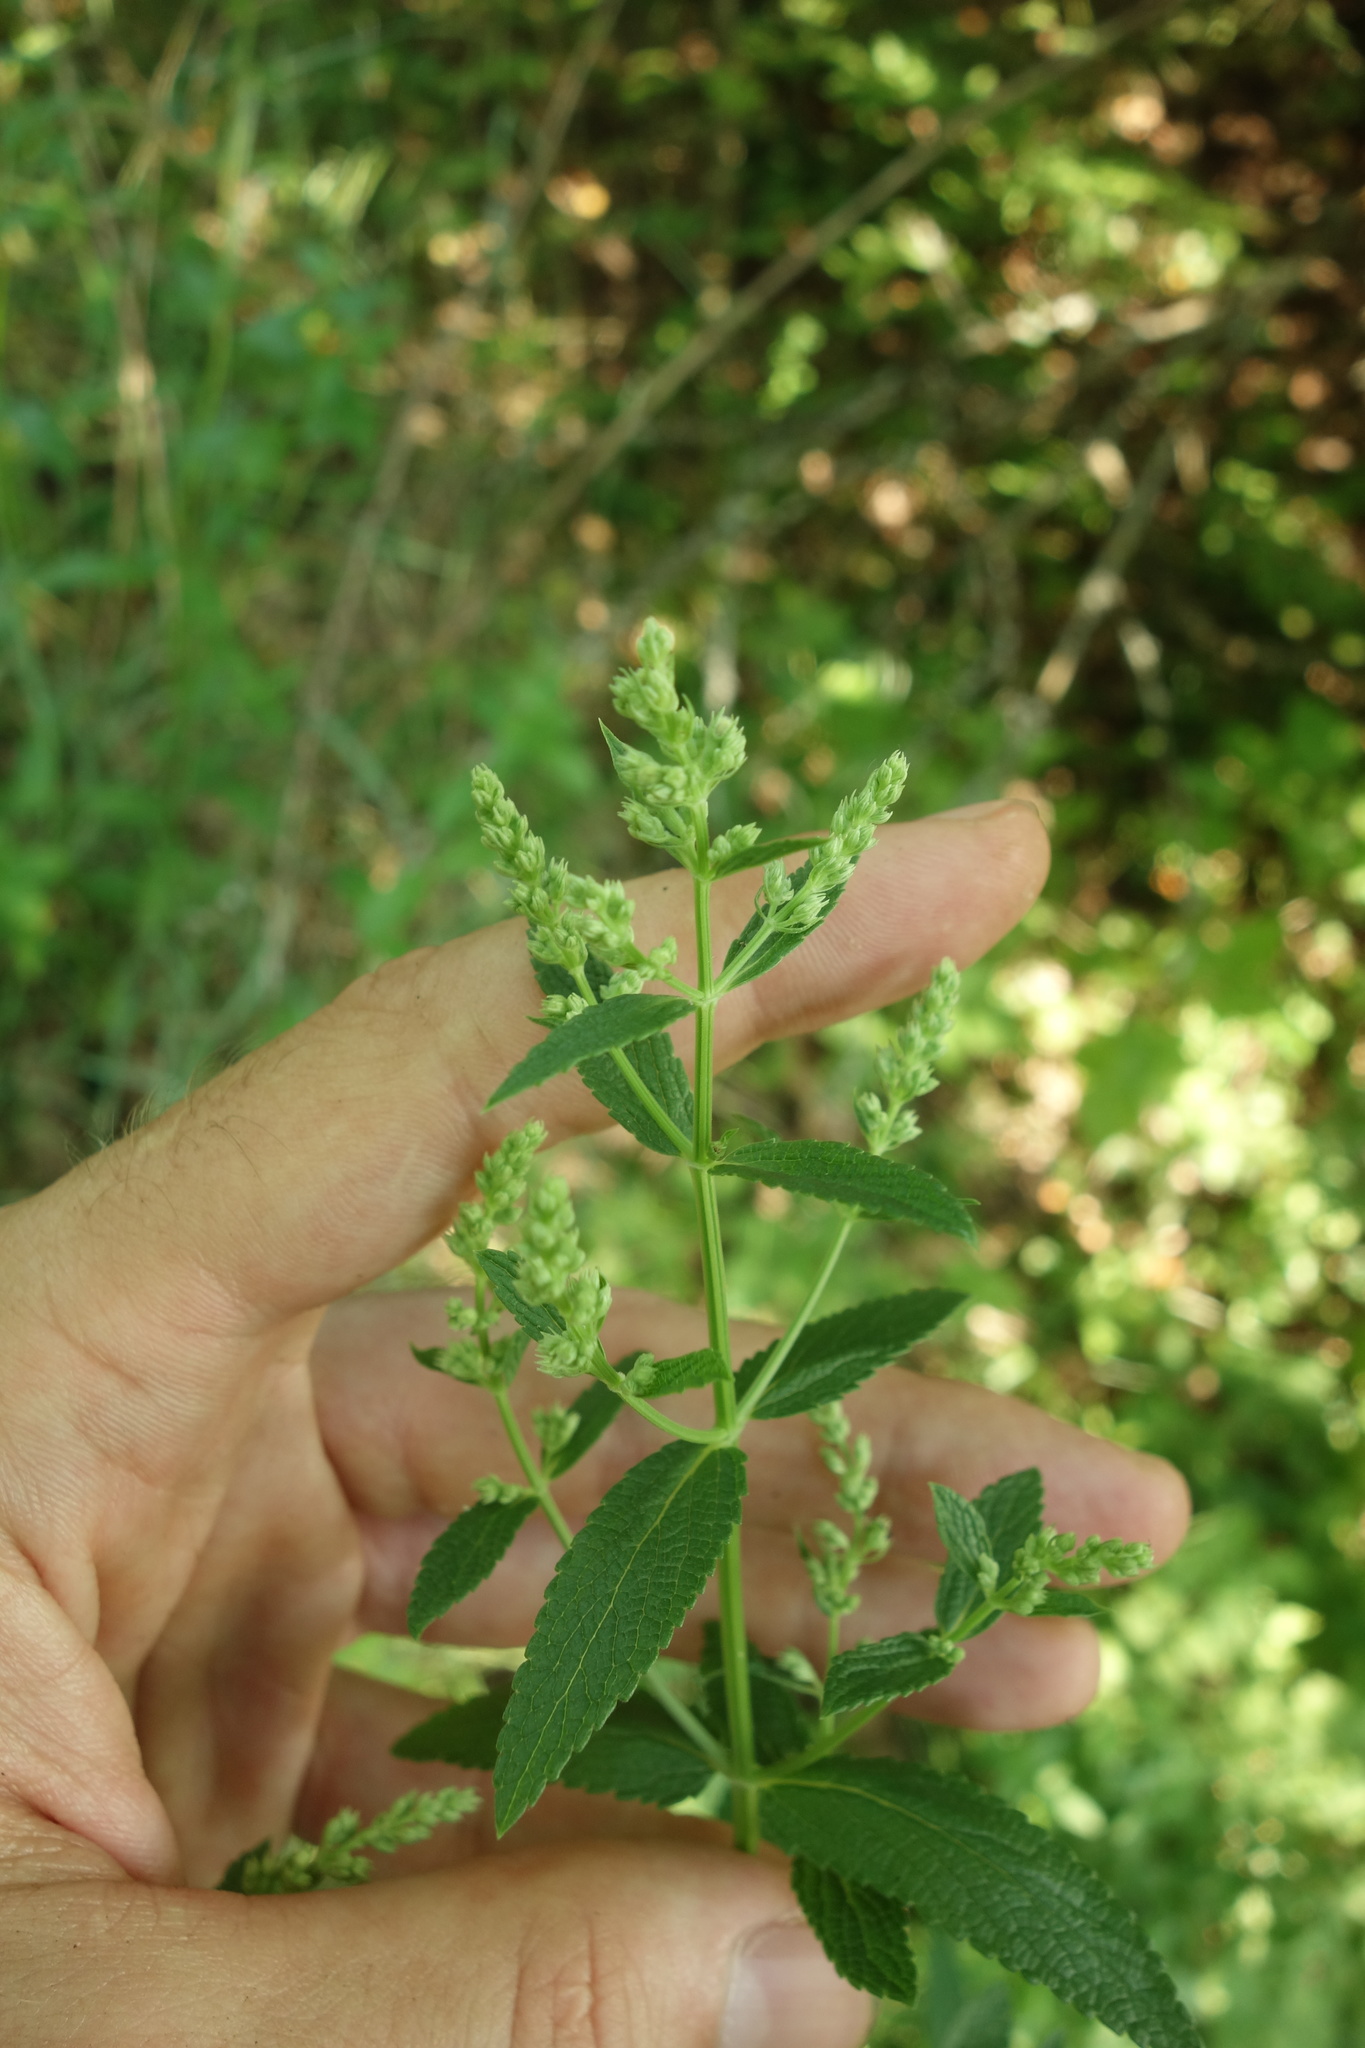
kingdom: Plantae
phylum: Tracheophyta
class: Magnoliopsida
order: Lamiales
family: Lamiaceae
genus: Nepeta
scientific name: Nepeta nuda
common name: Hairless catmint
